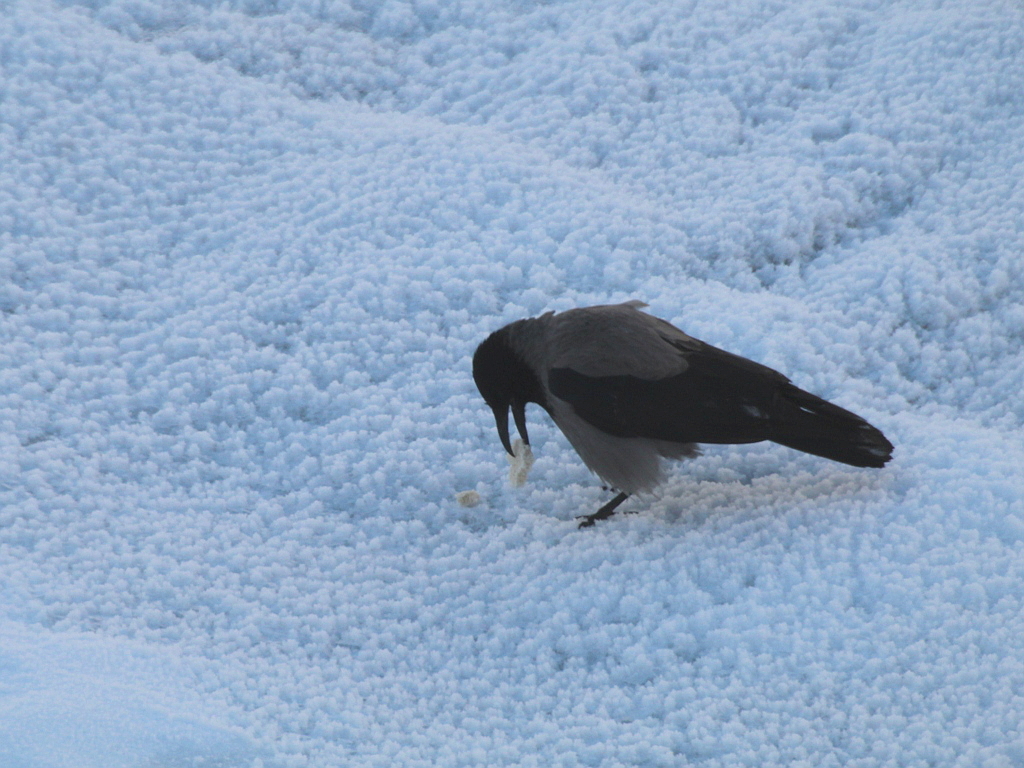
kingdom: Animalia
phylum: Chordata
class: Aves
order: Passeriformes
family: Corvidae
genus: Corvus
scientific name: Corvus cornix
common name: Hooded crow
